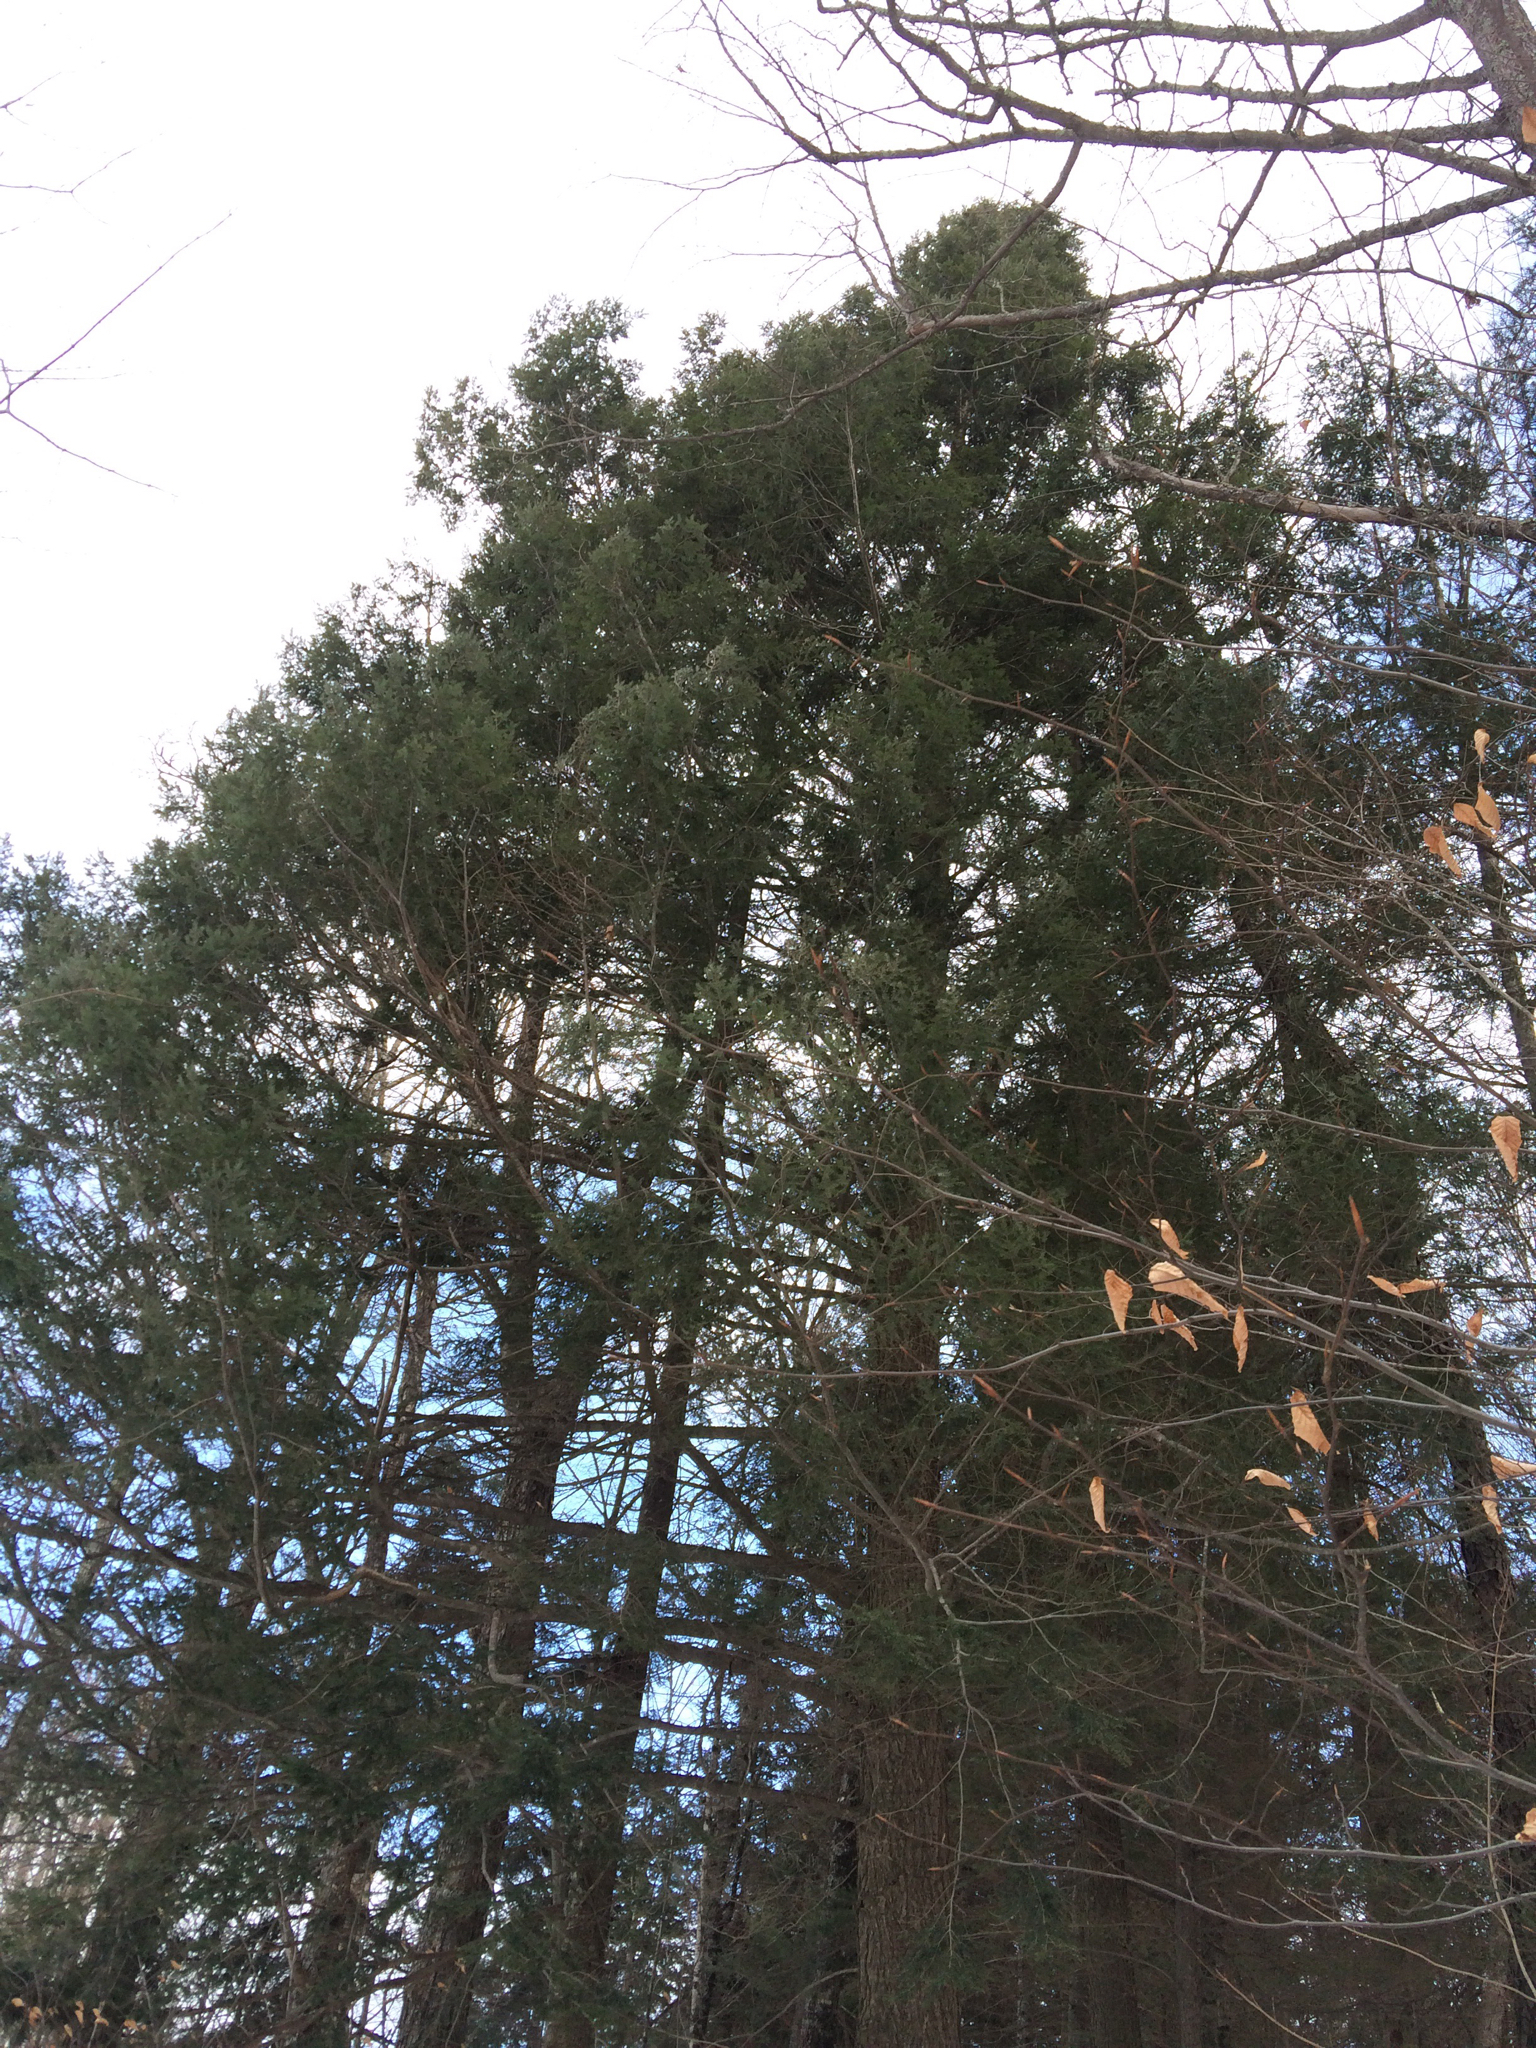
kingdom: Plantae
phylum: Tracheophyta
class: Pinopsida
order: Pinales
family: Pinaceae
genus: Tsuga
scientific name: Tsuga canadensis
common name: Eastern hemlock
